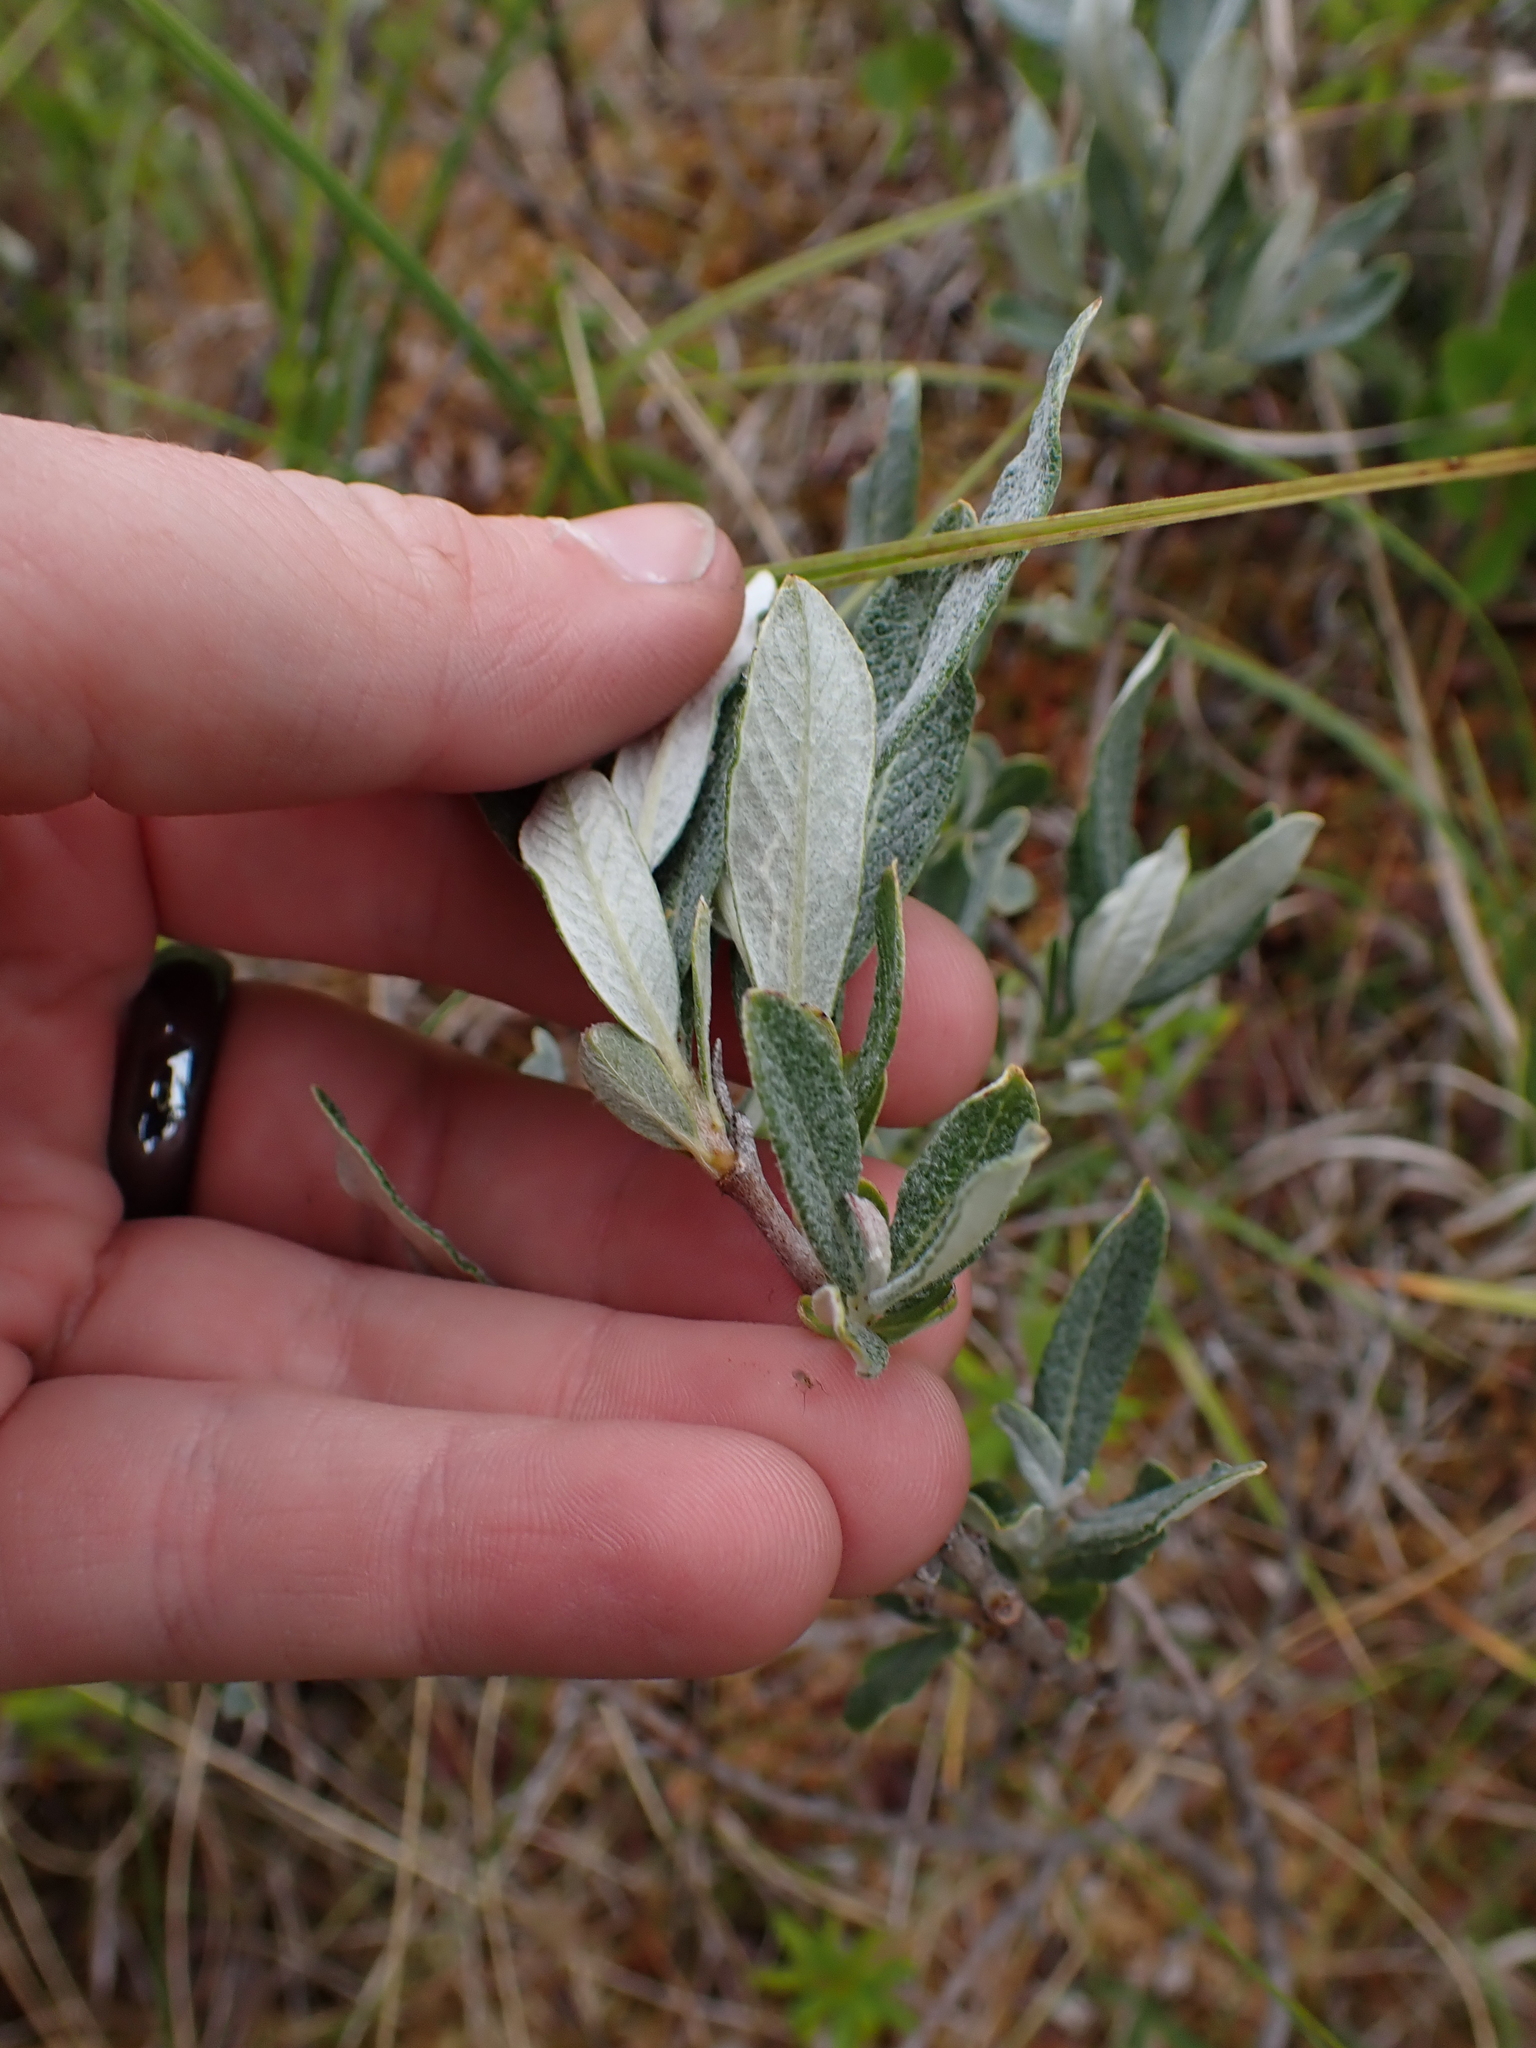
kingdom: Plantae
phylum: Tracheophyta
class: Magnoliopsida
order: Malpighiales
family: Salicaceae
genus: Salix
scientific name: Salix candida
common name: Hoary willow
